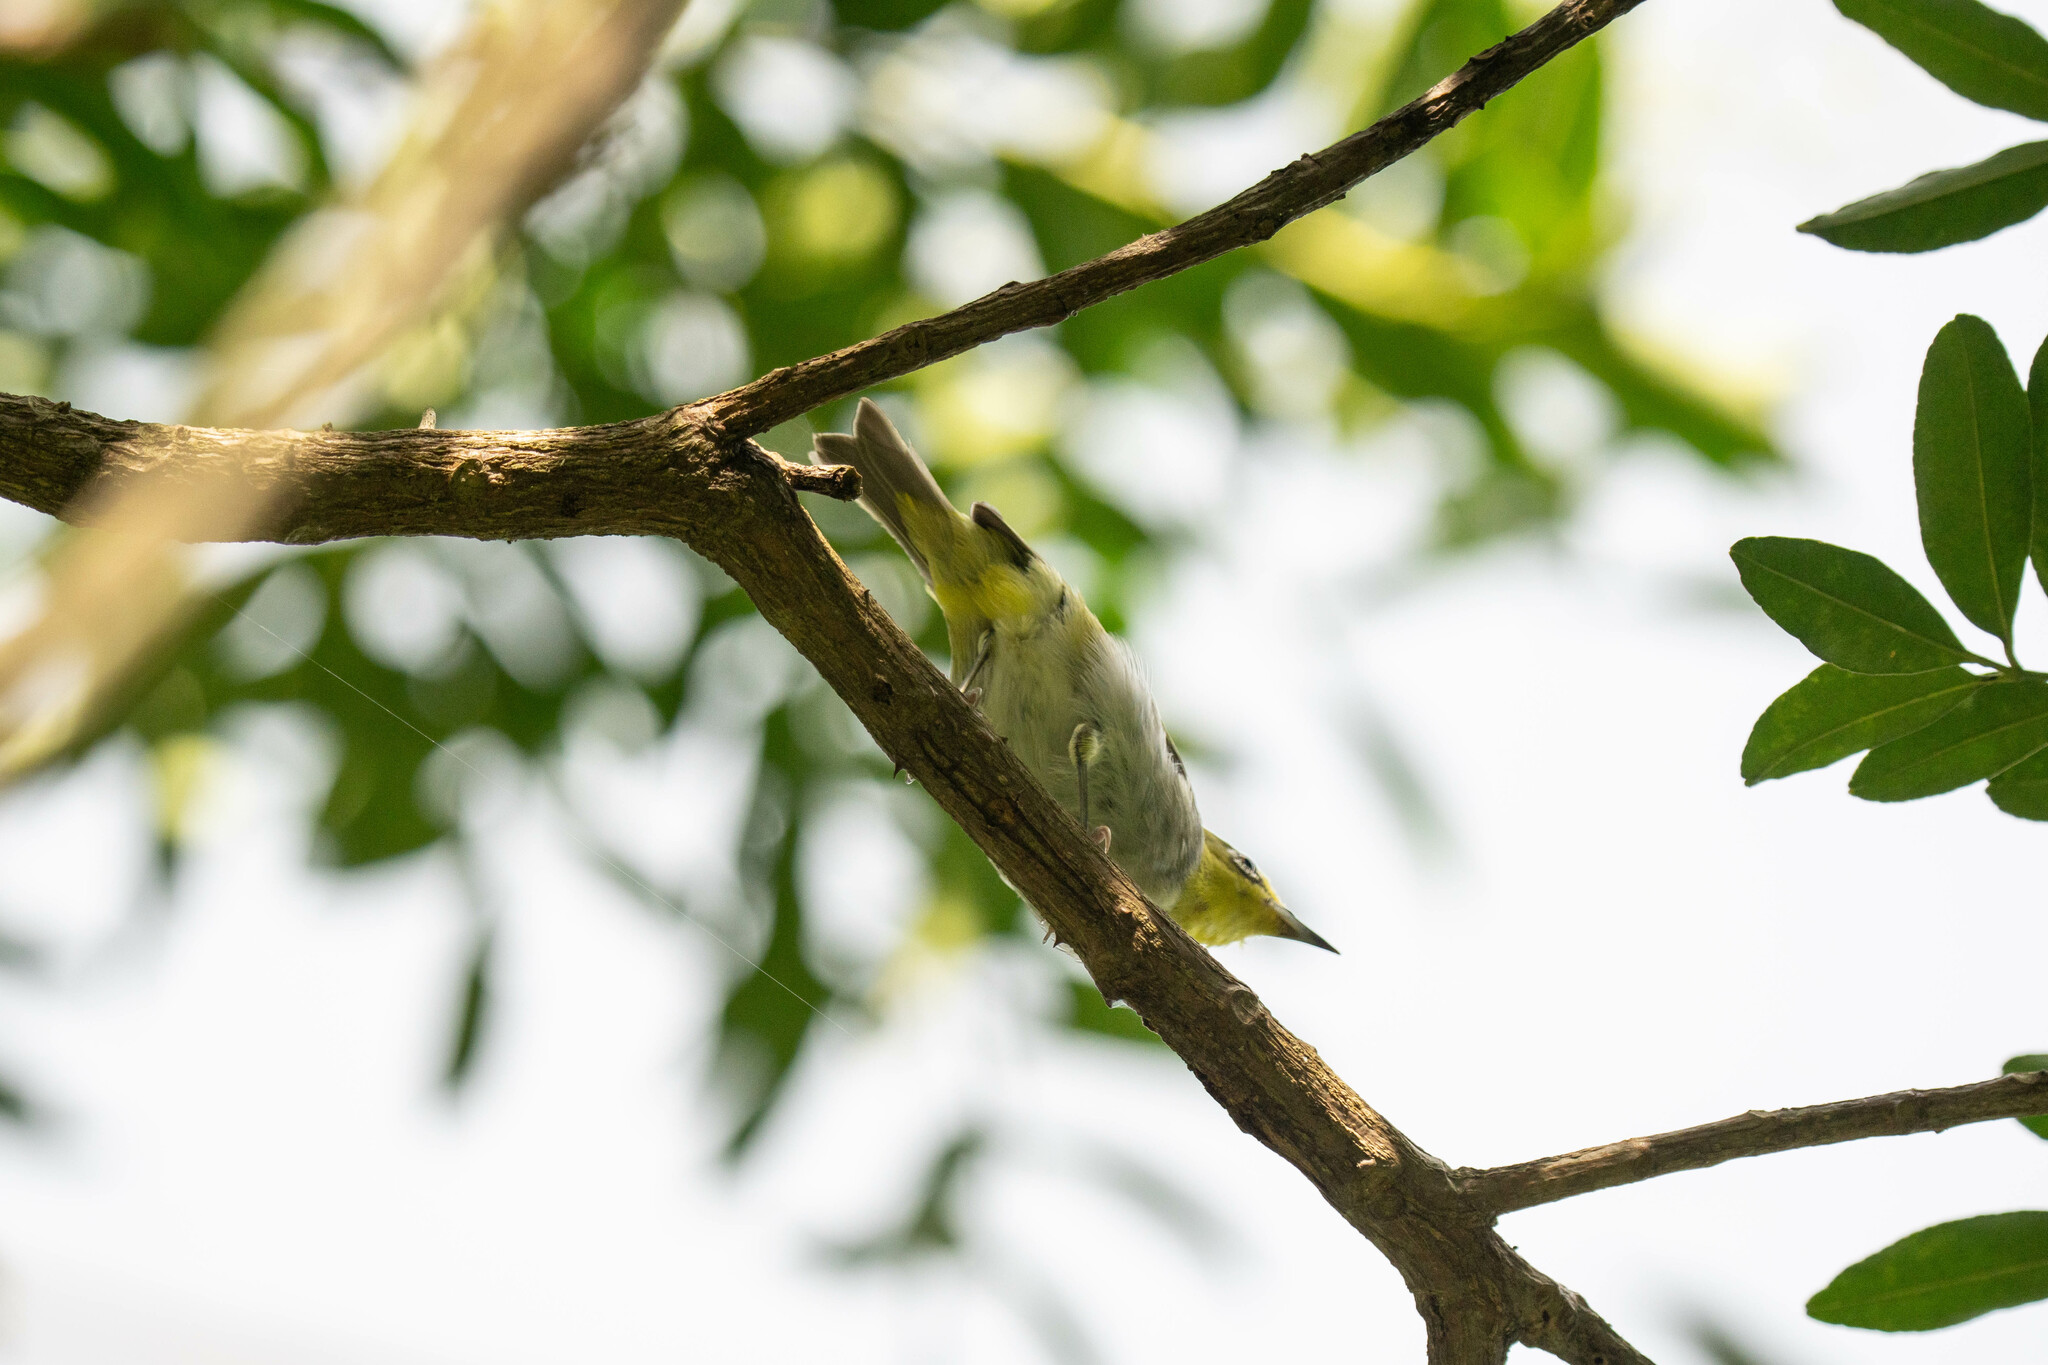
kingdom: Animalia
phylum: Chordata
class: Aves
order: Passeriformes
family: Zosteropidae
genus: Zosterops
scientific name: Zosterops simplex
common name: Swinhoe's white-eye
